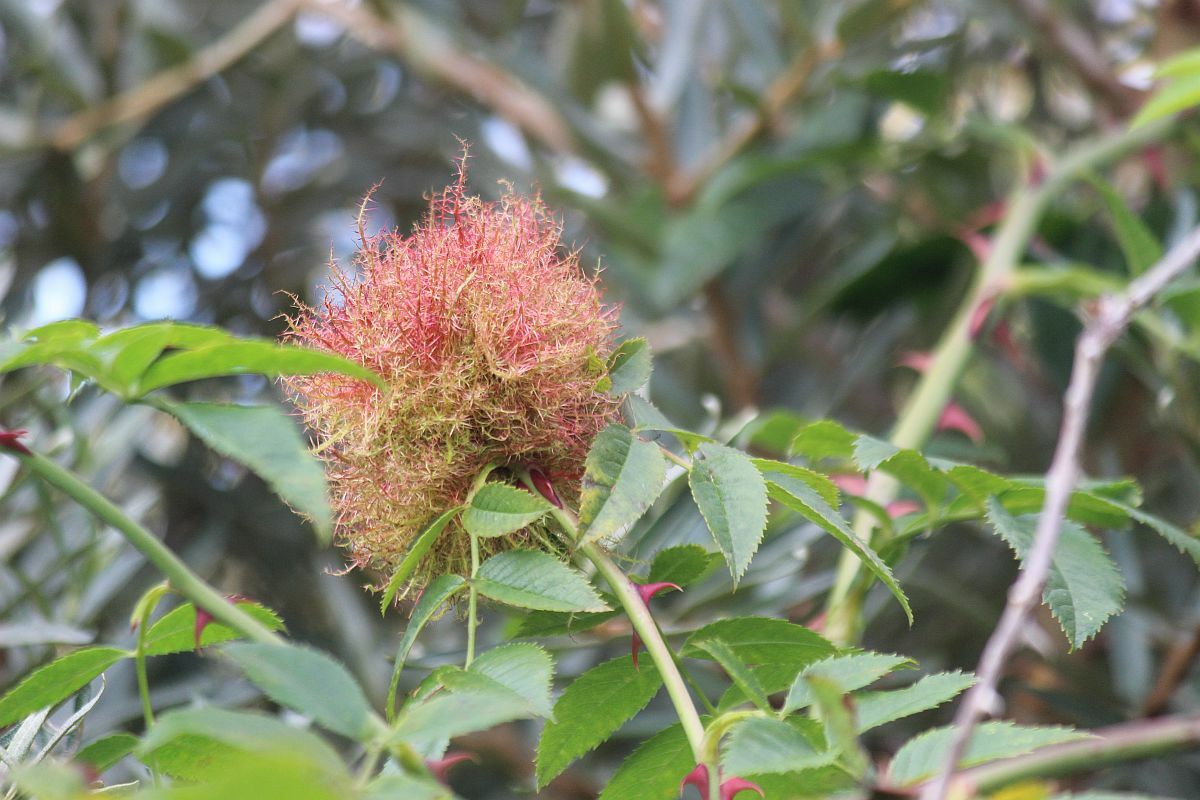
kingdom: Animalia
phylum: Arthropoda
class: Insecta
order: Hymenoptera
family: Cynipidae
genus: Diplolepis
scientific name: Diplolepis rosae
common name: Bedeguar gall
